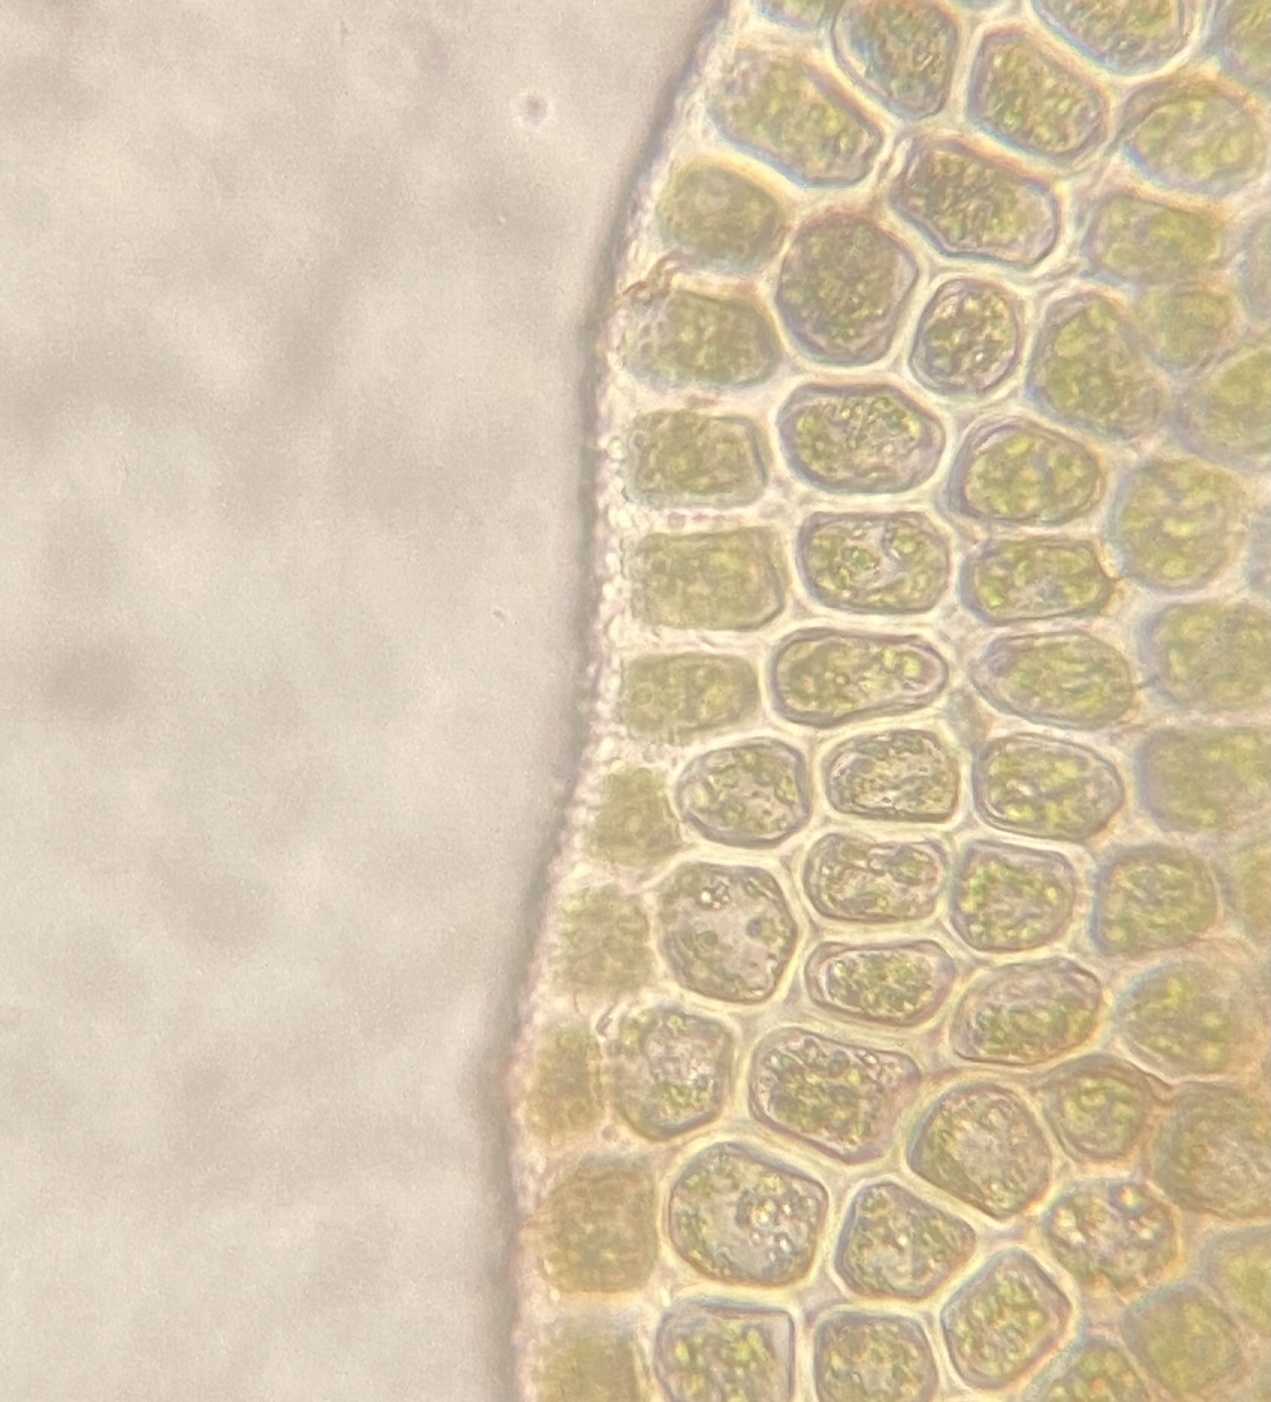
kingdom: Plantae
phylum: Marchantiophyta
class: Jungermanniopsida
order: Jungermanniales
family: Cephaloziaceae
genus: Odontoschisma
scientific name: Odontoschisma sphagni
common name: Bog-moss flapwort
